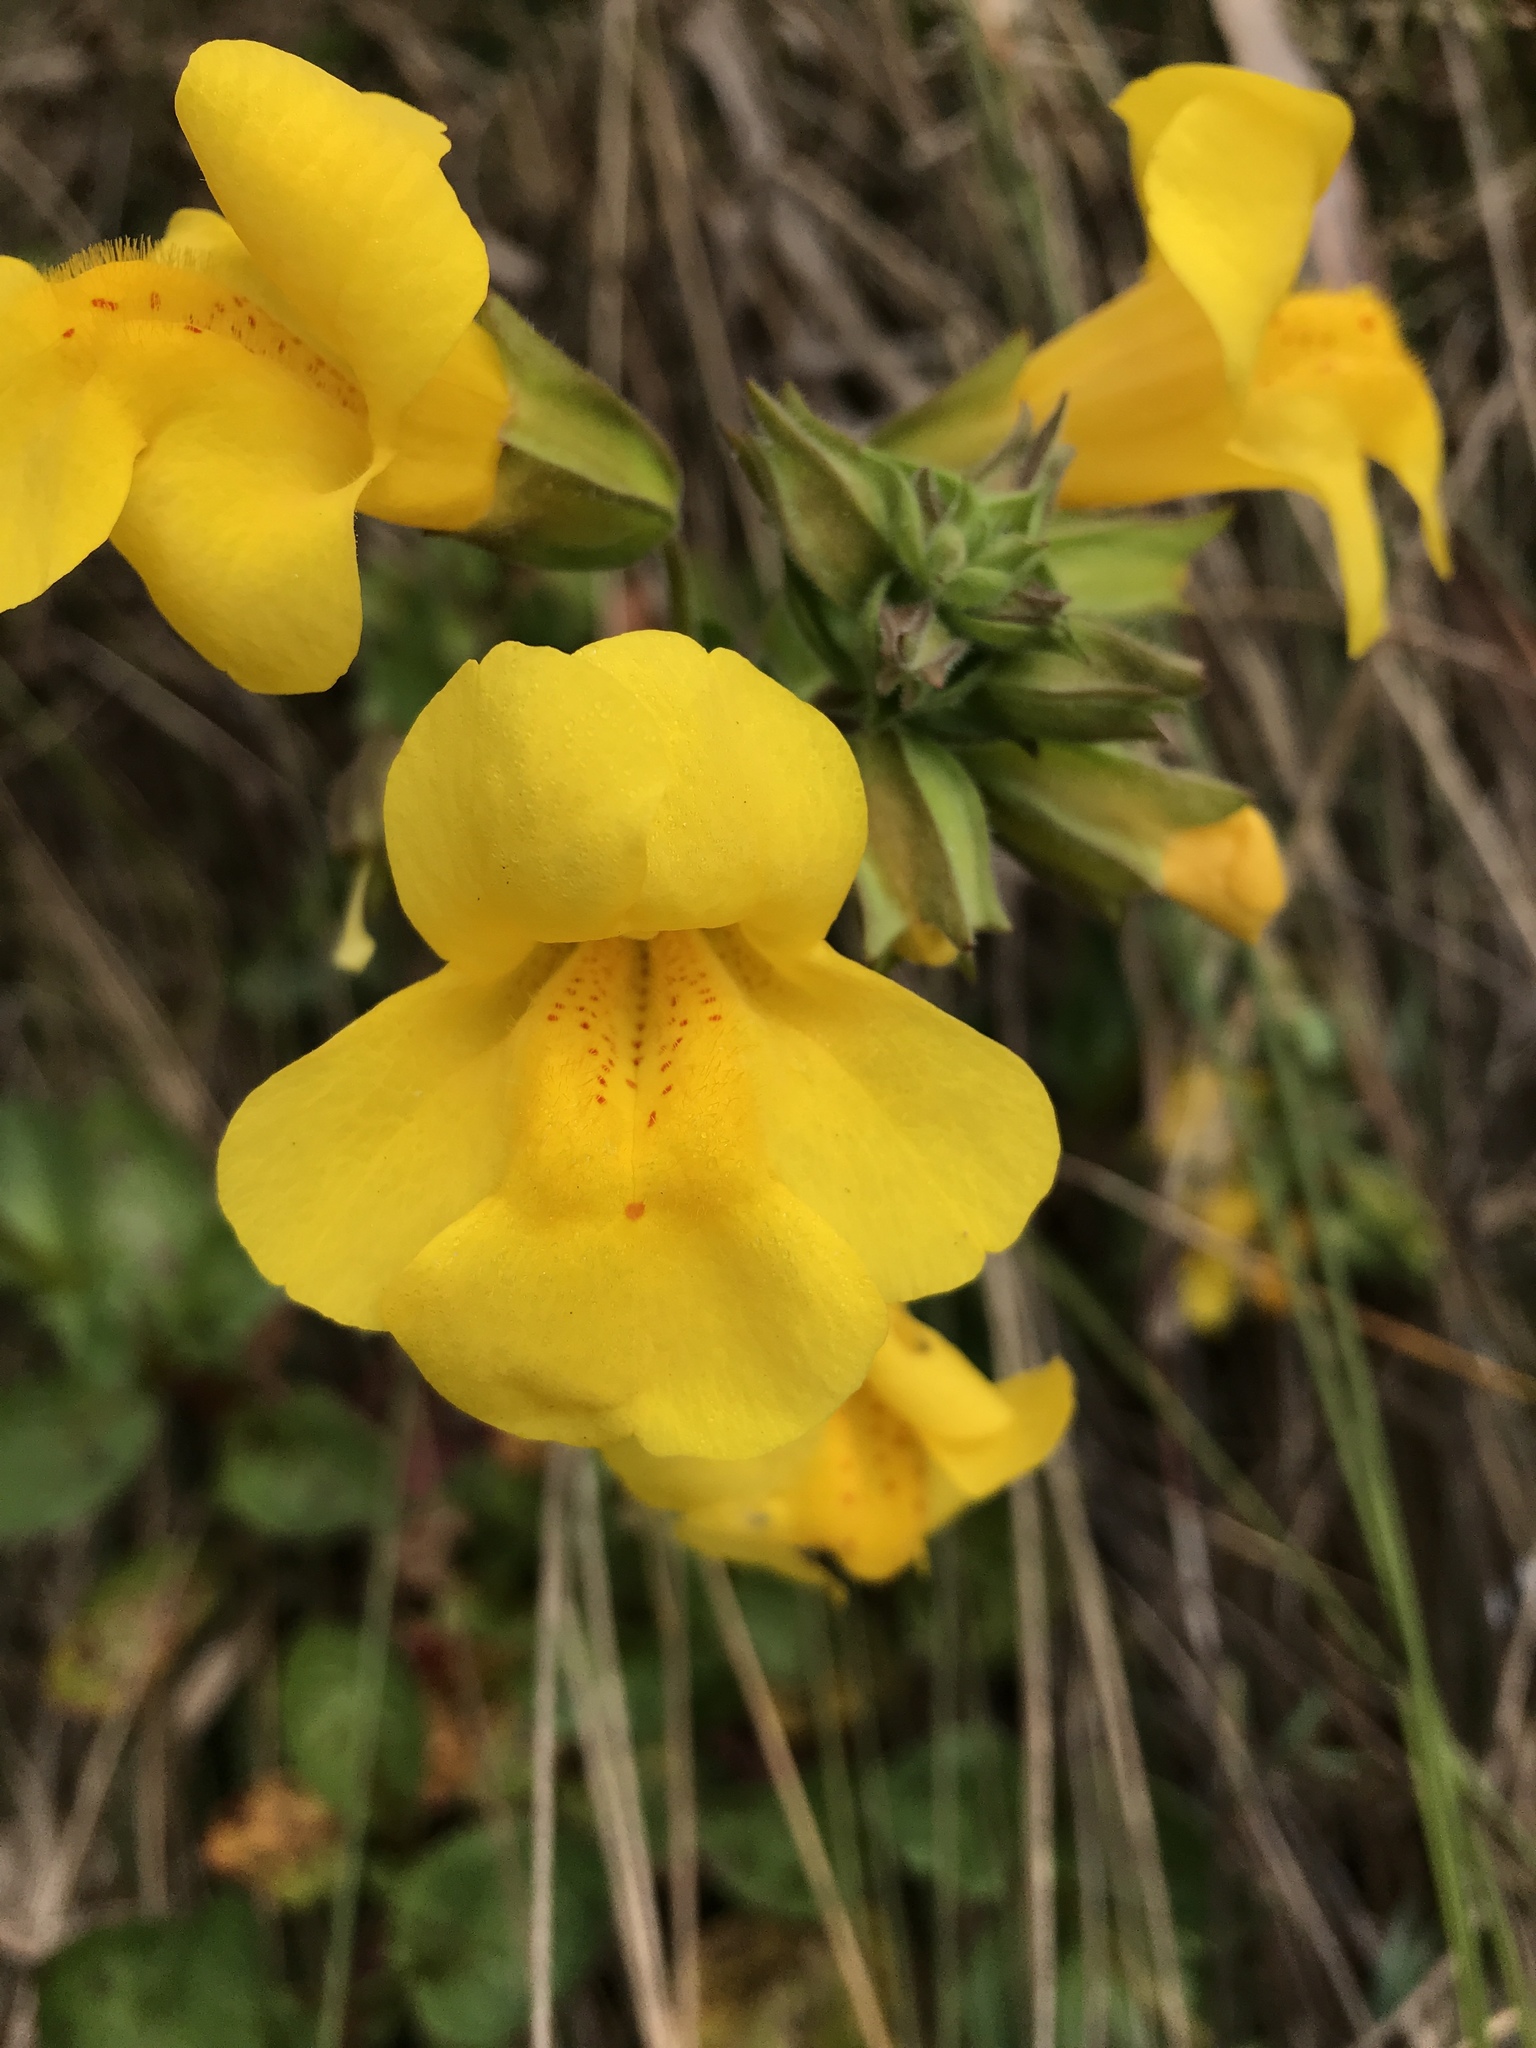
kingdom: Plantae
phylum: Tracheophyta
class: Magnoliopsida
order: Lamiales
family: Phrymaceae
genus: Erythranthe
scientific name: Erythranthe guttata
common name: Monkeyflower
